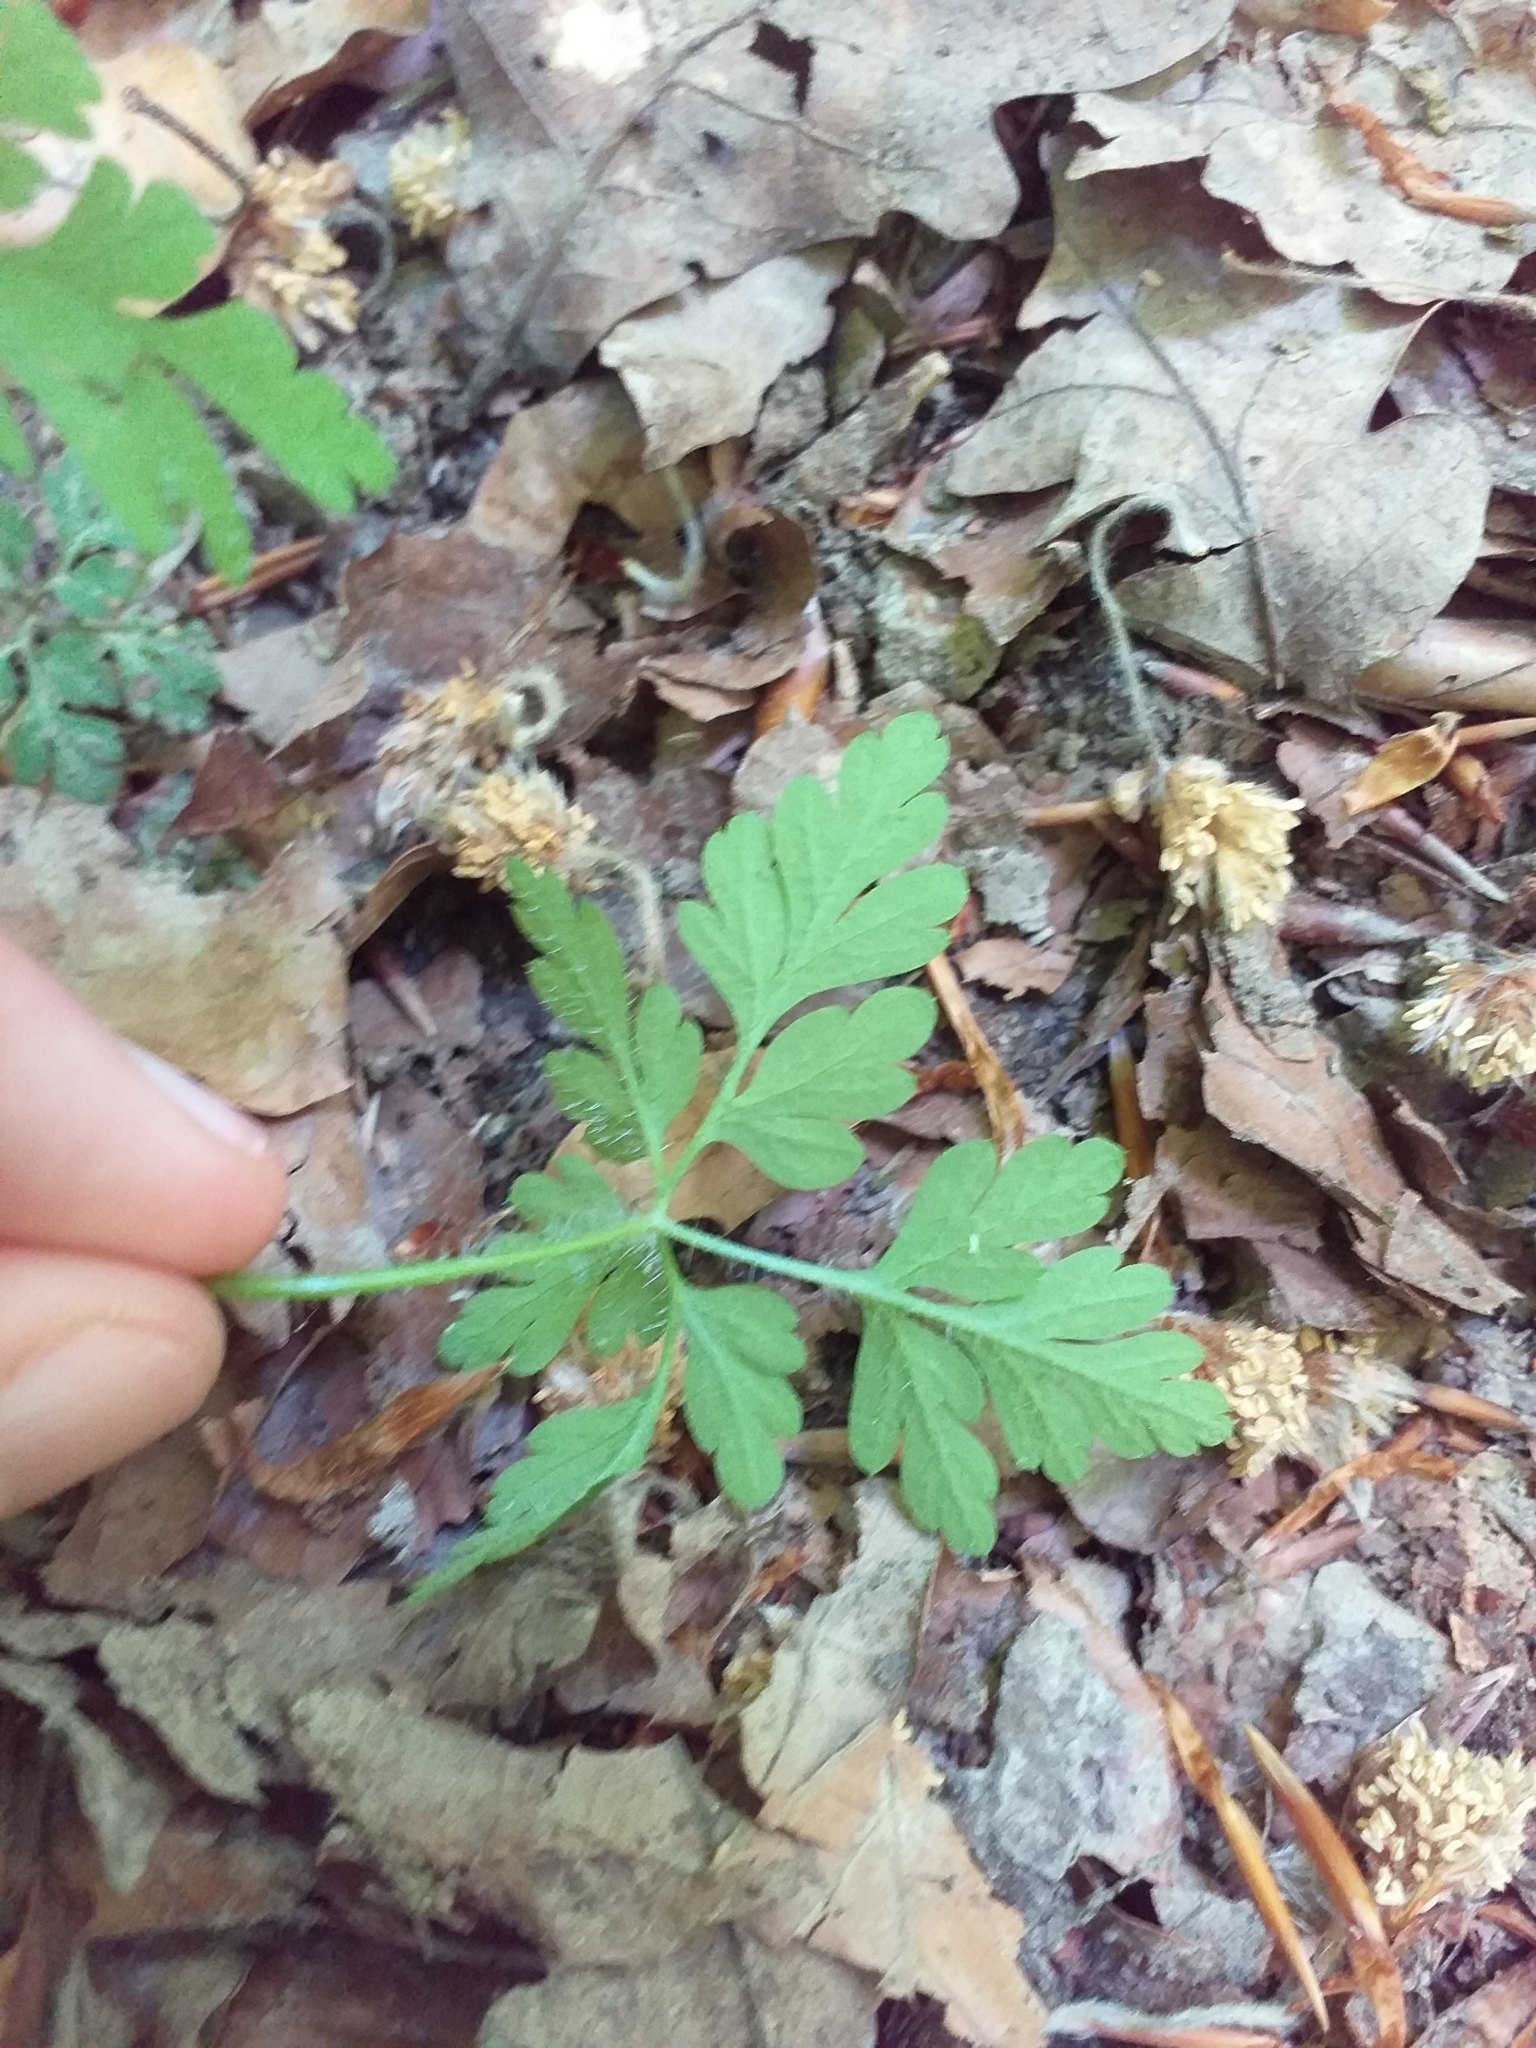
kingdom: Plantae
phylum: Tracheophyta
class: Magnoliopsida
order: Geraniales
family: Geraniaceae
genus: Geranium
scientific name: Geranium robertianum
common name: Herb-robert
